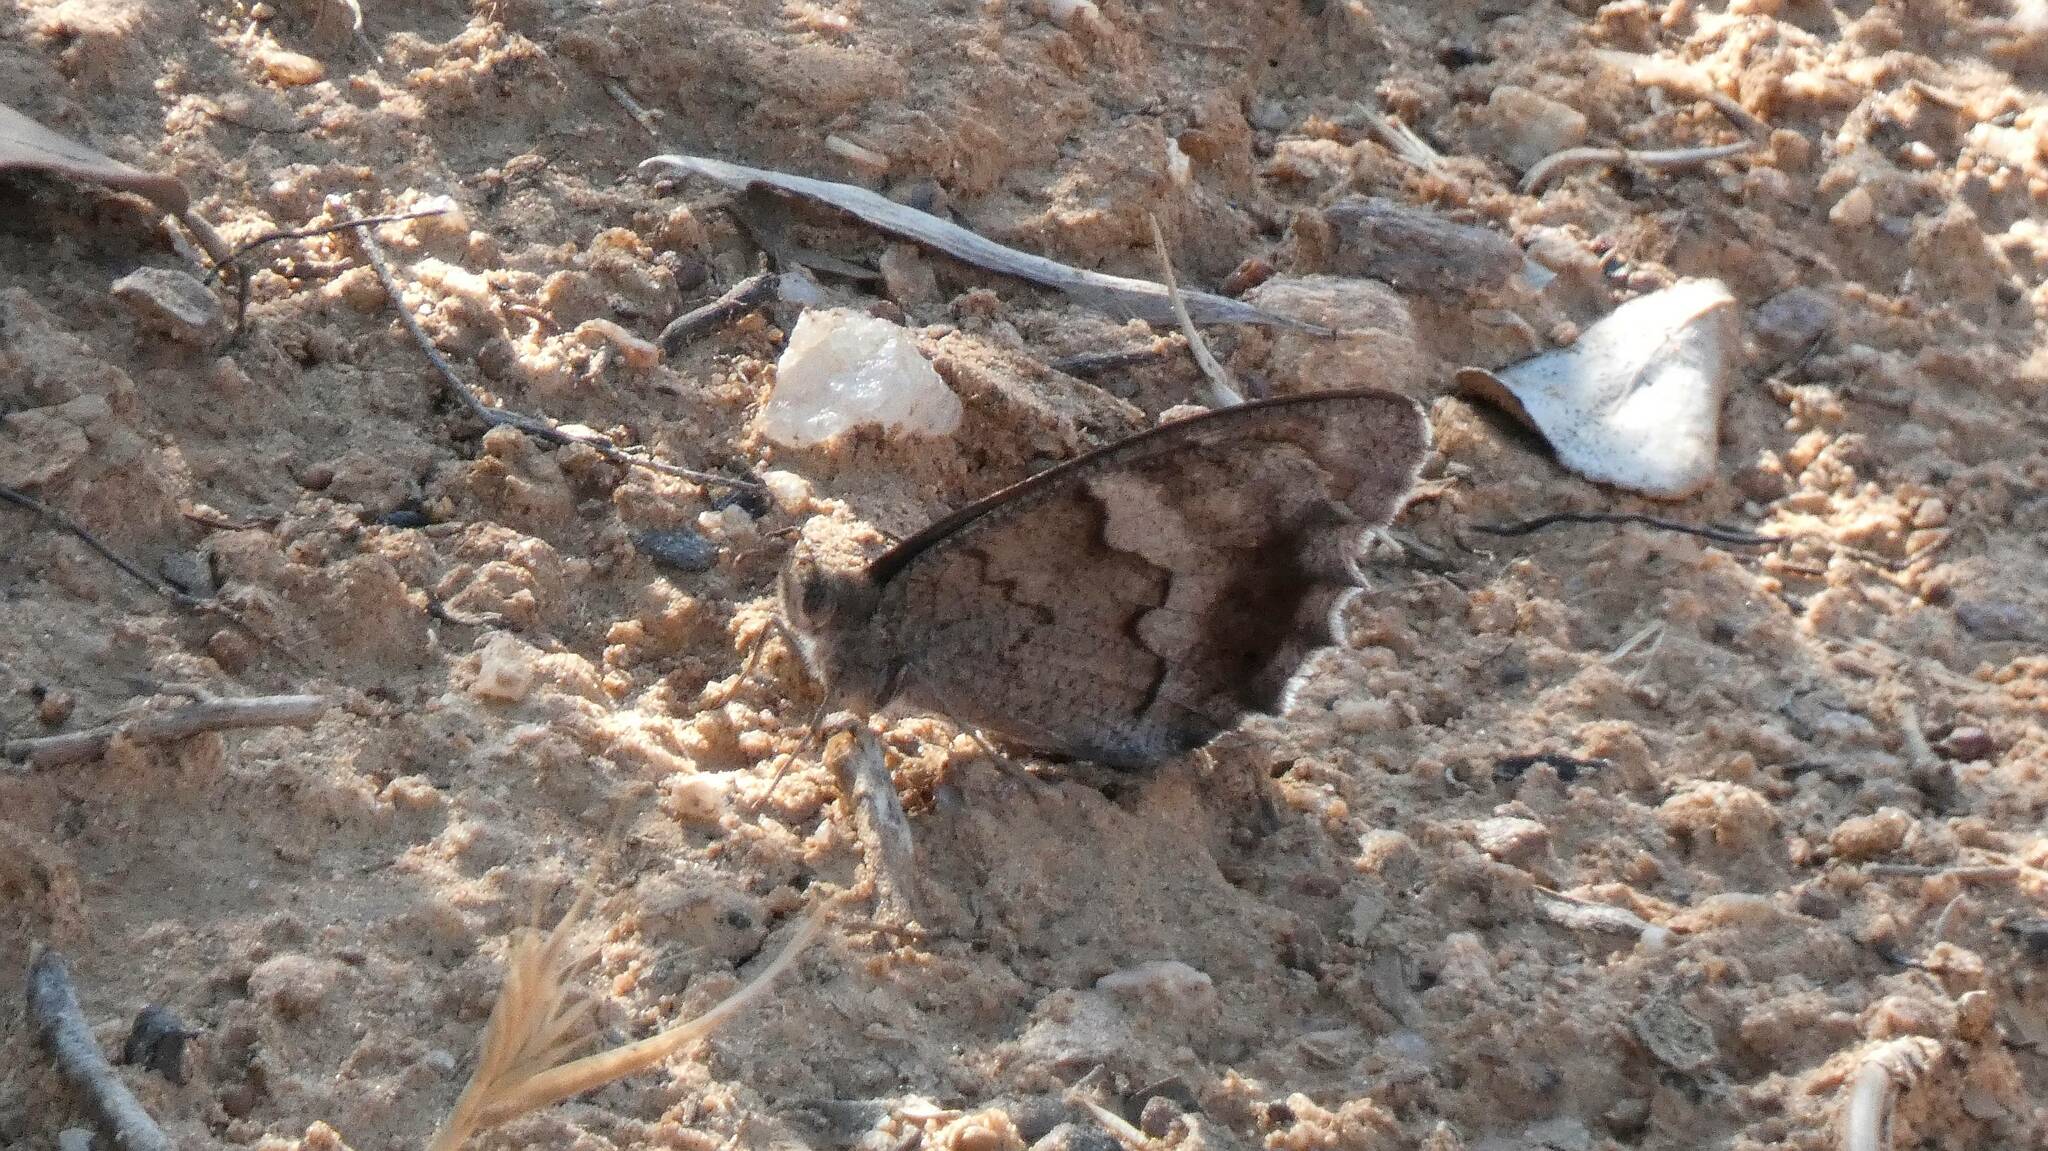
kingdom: Animalia
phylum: Arthropoda
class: Insecta
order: Lepidoptera
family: Nymphalidae
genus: Hipparchia
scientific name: Hipparchia statilinus
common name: Tree grayling
